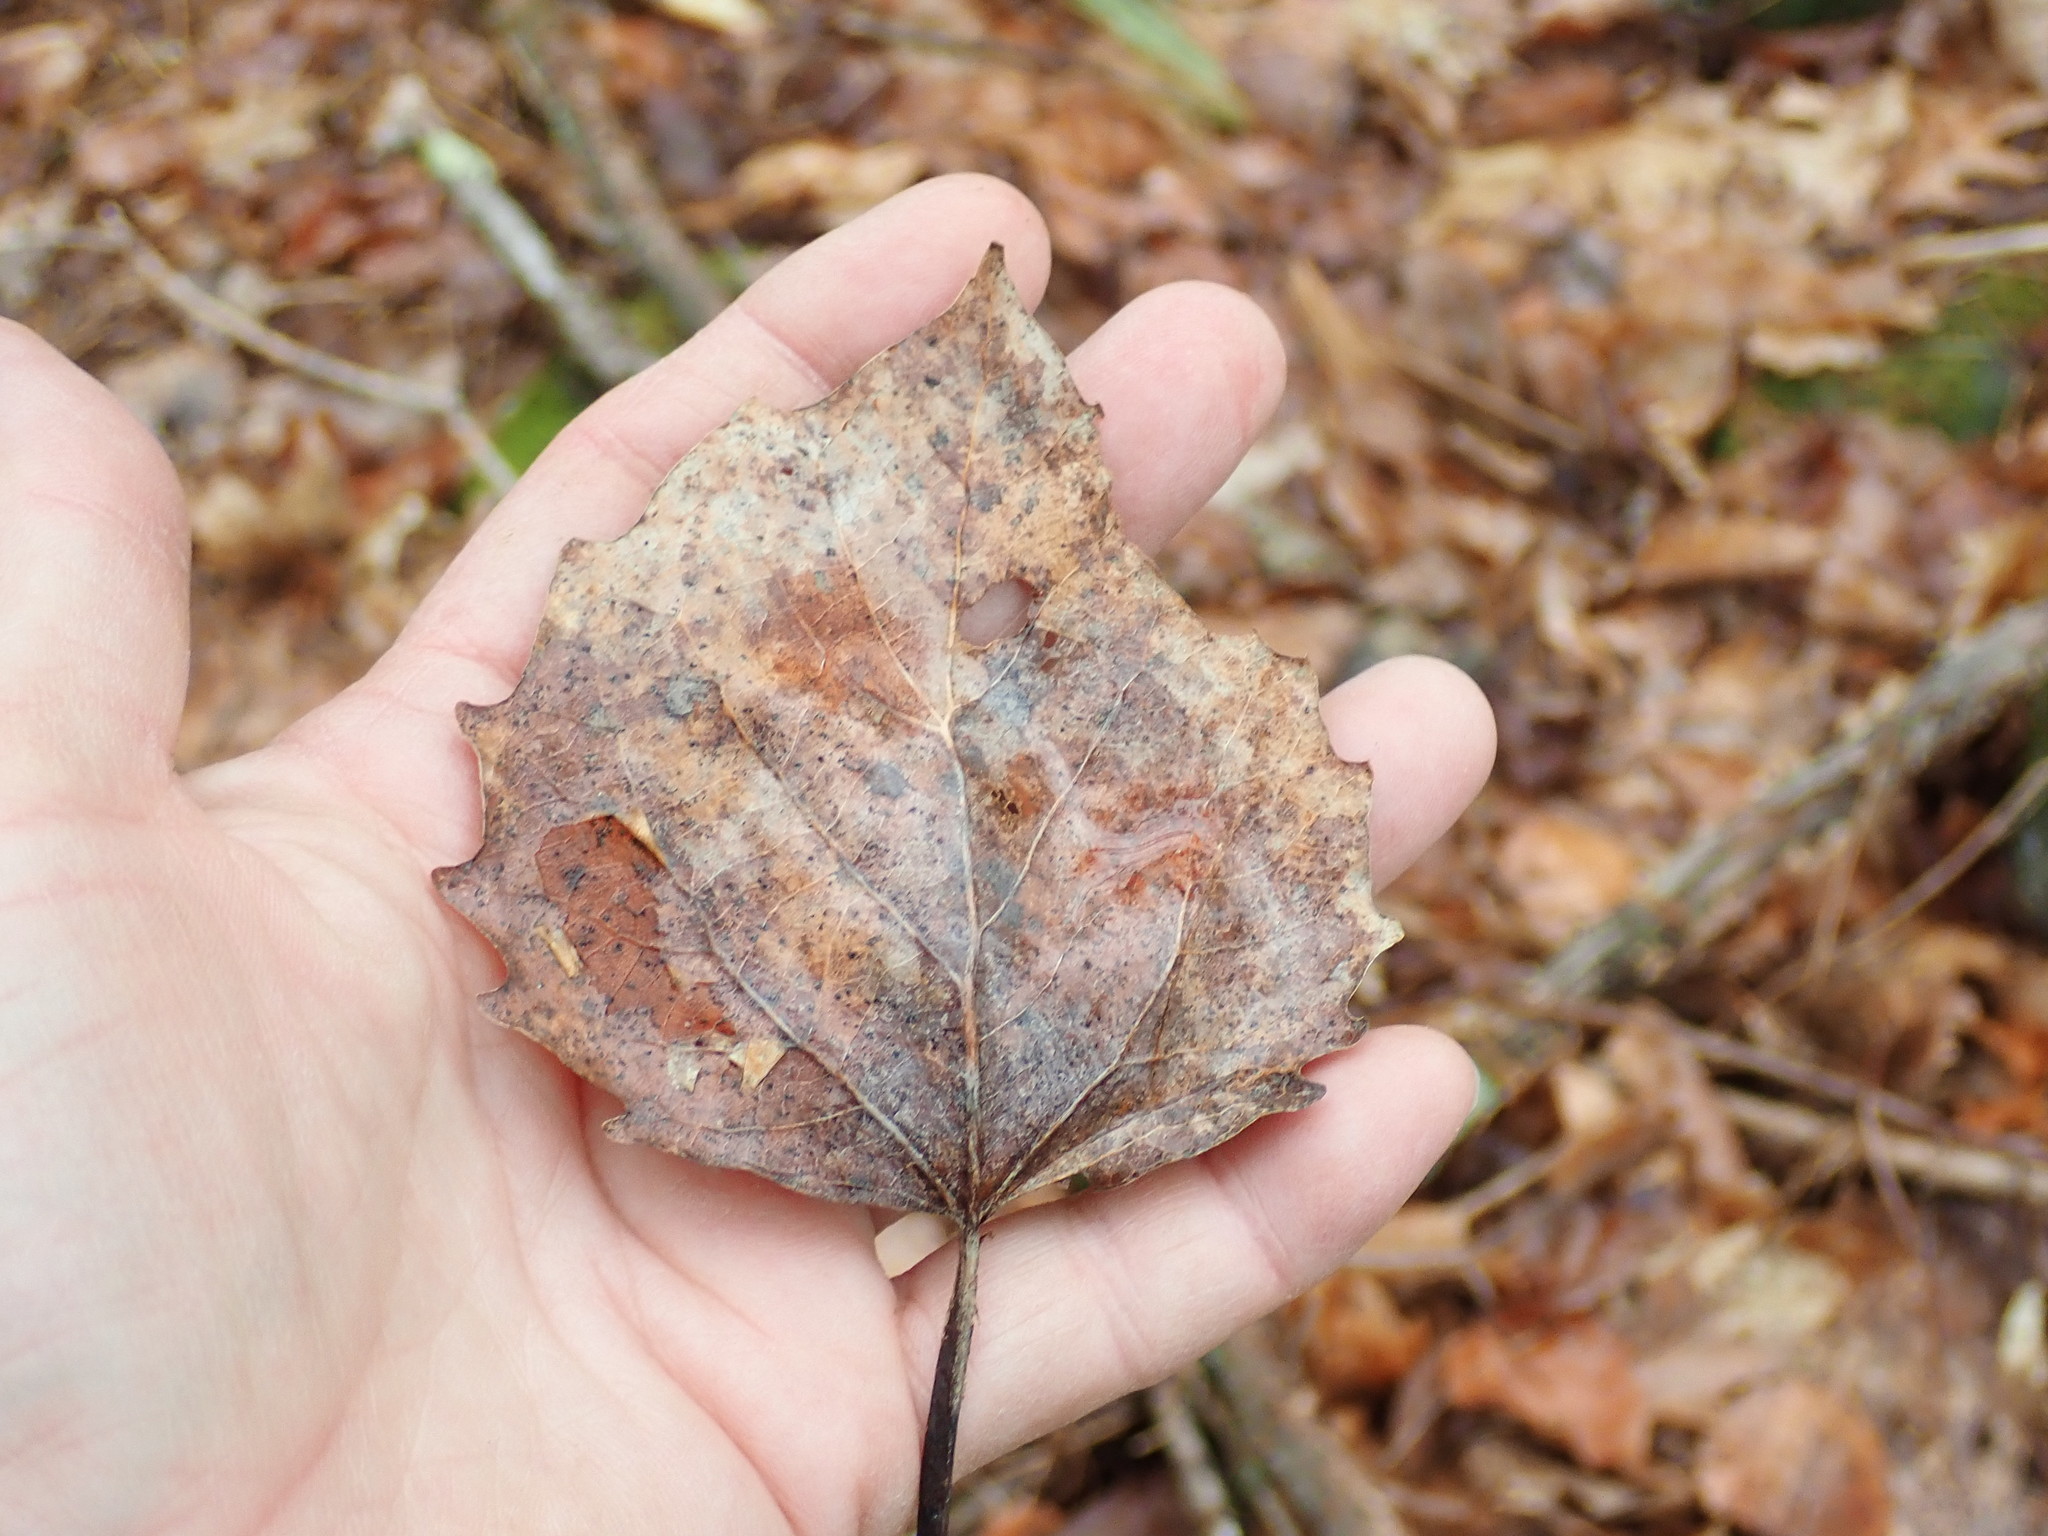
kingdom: Plantae
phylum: Tracheophyta
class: Magnoliopsida
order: Malpighiales
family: Salicaceae
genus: Populus
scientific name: Populus grandidentata
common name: Bigtooth aspen
